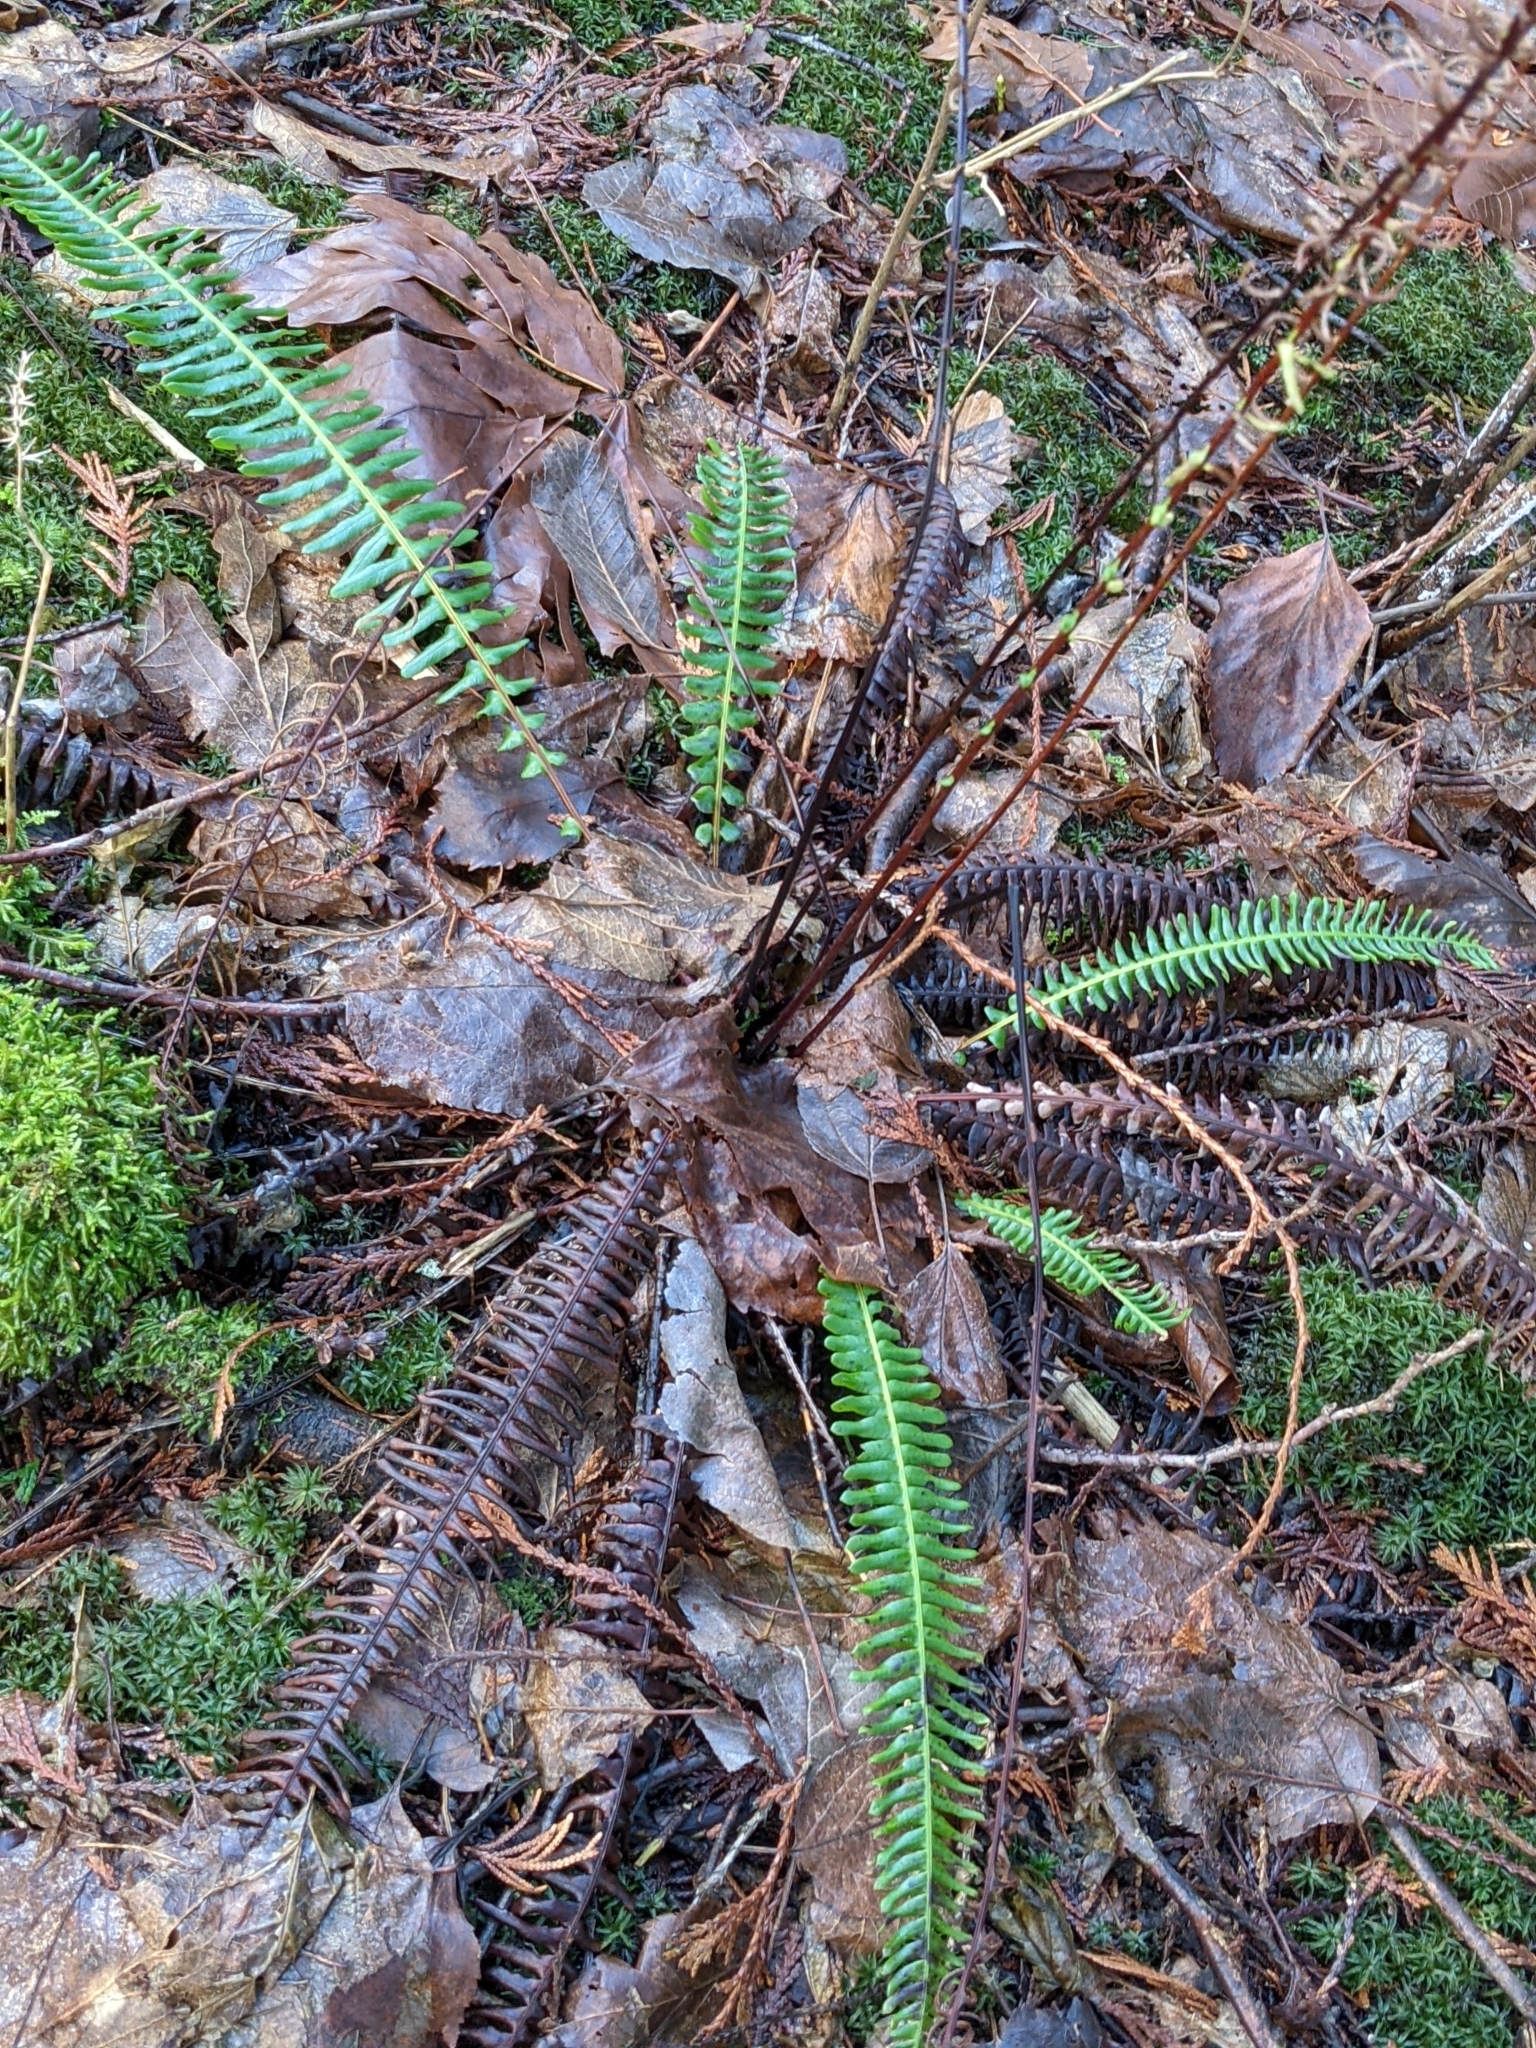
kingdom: Plantae
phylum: Tracheophyta
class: Polypodiopsida
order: Polypodiales
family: Blechnaceae
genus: Struthiopteris
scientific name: Struthiopteris spicant
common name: Deer fern
